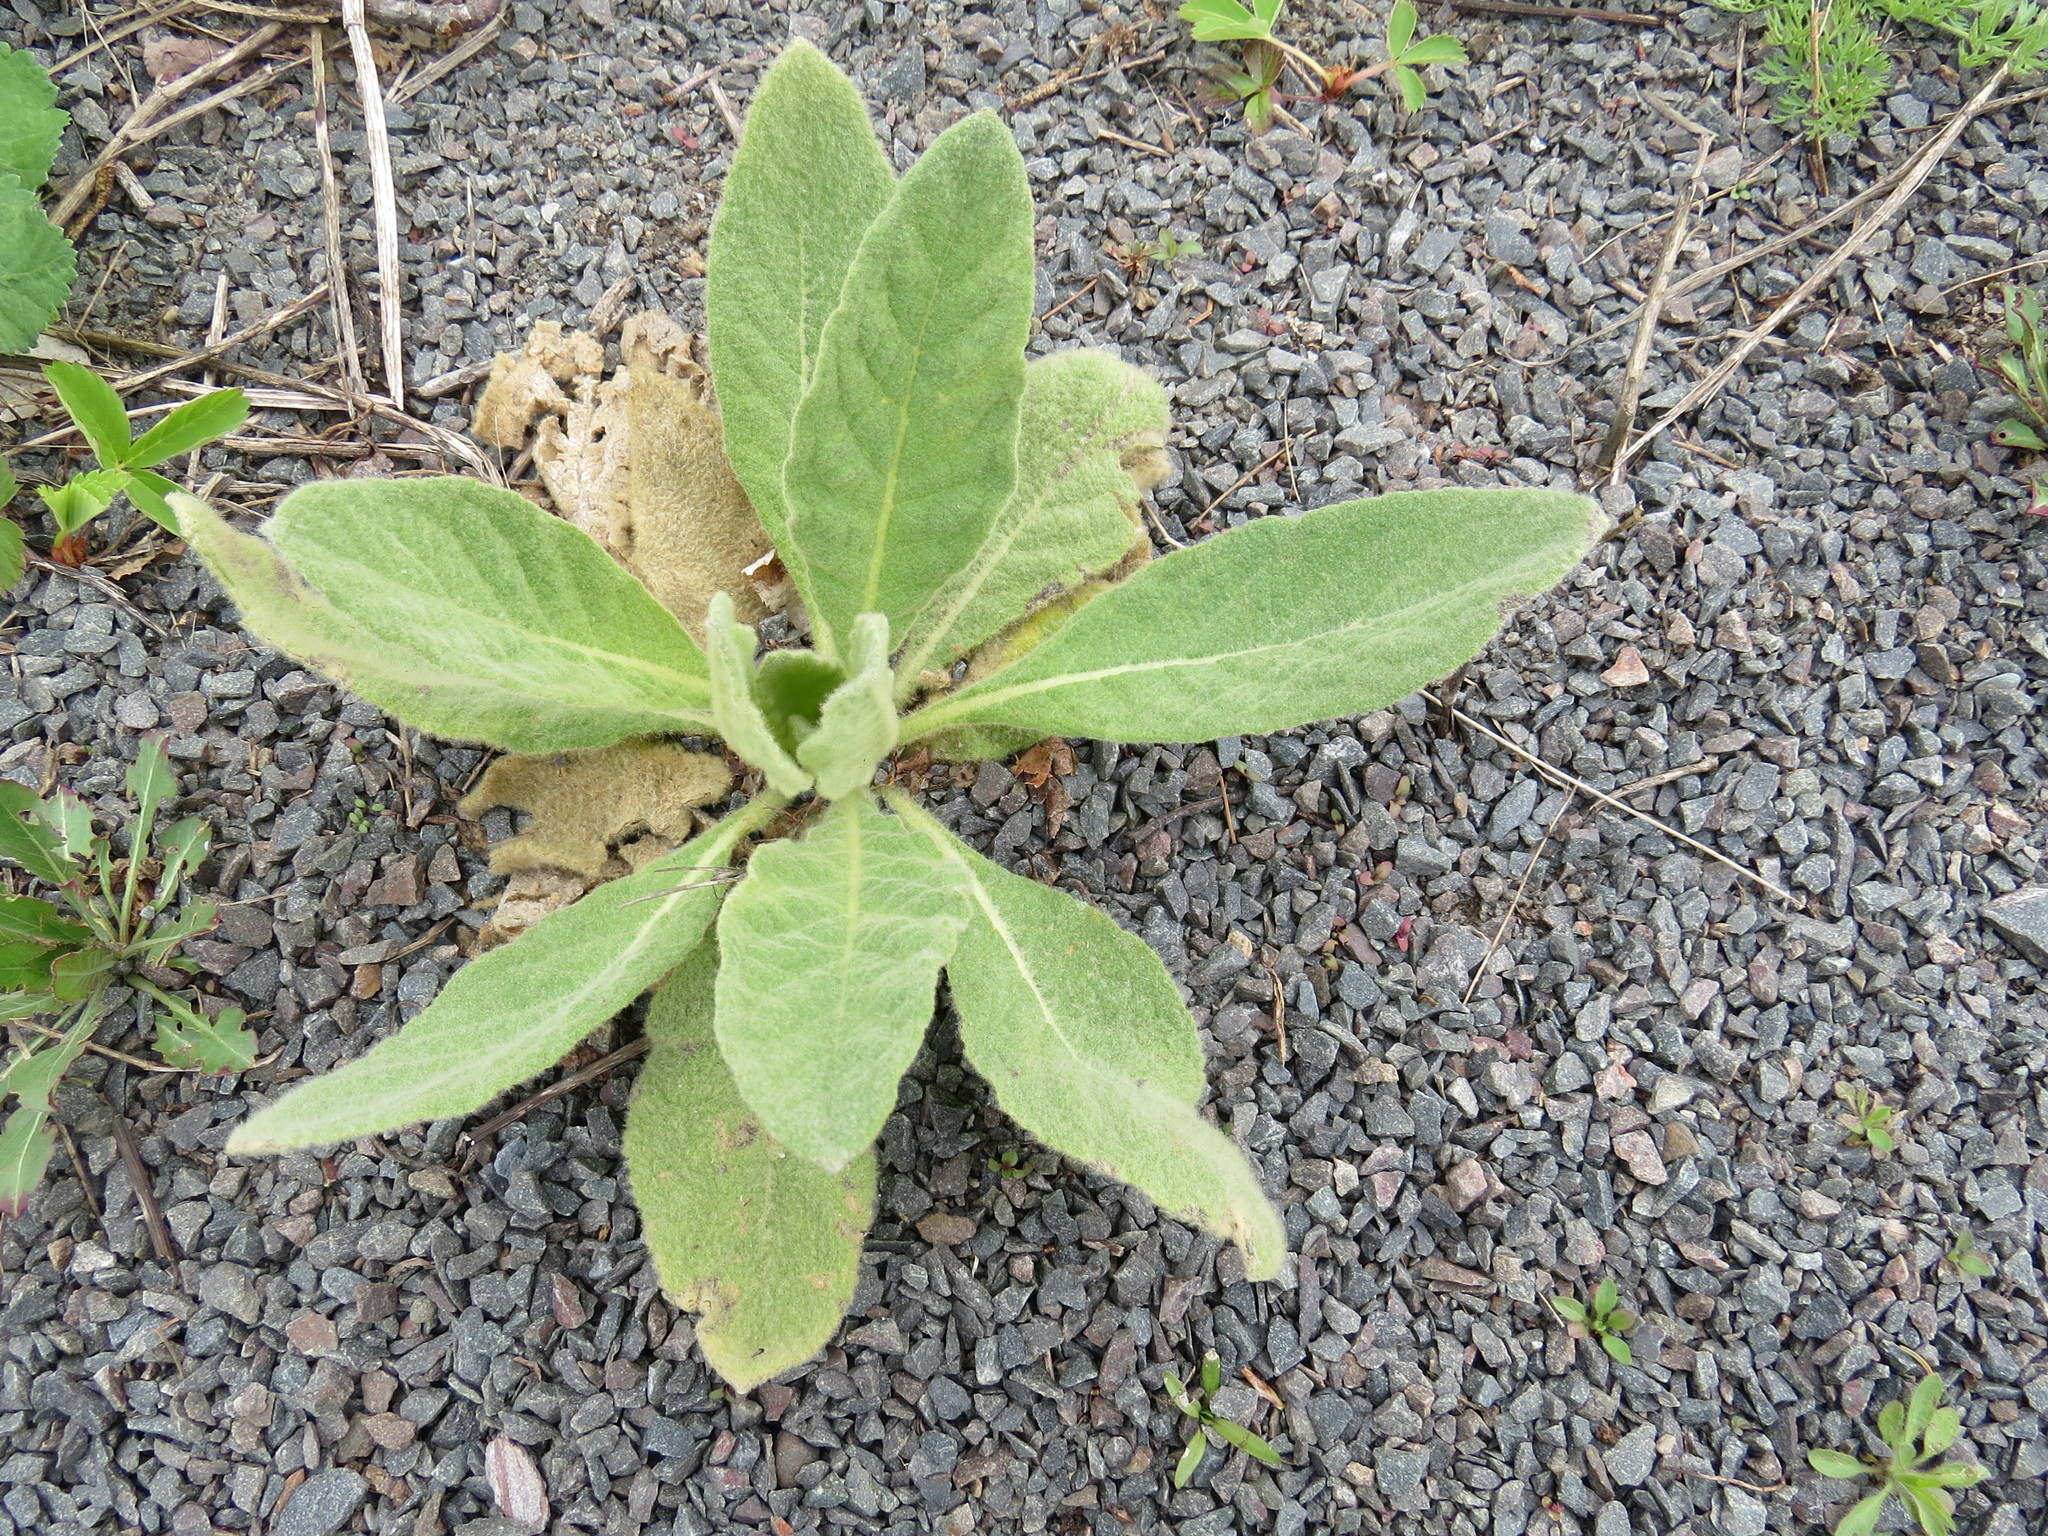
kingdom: Plantae
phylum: Tracheophyta
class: Magnoliopsida
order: Lamiales
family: Scrophulariaceae
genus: Verbascum
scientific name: Verbascum thapsus
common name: Common mullein
